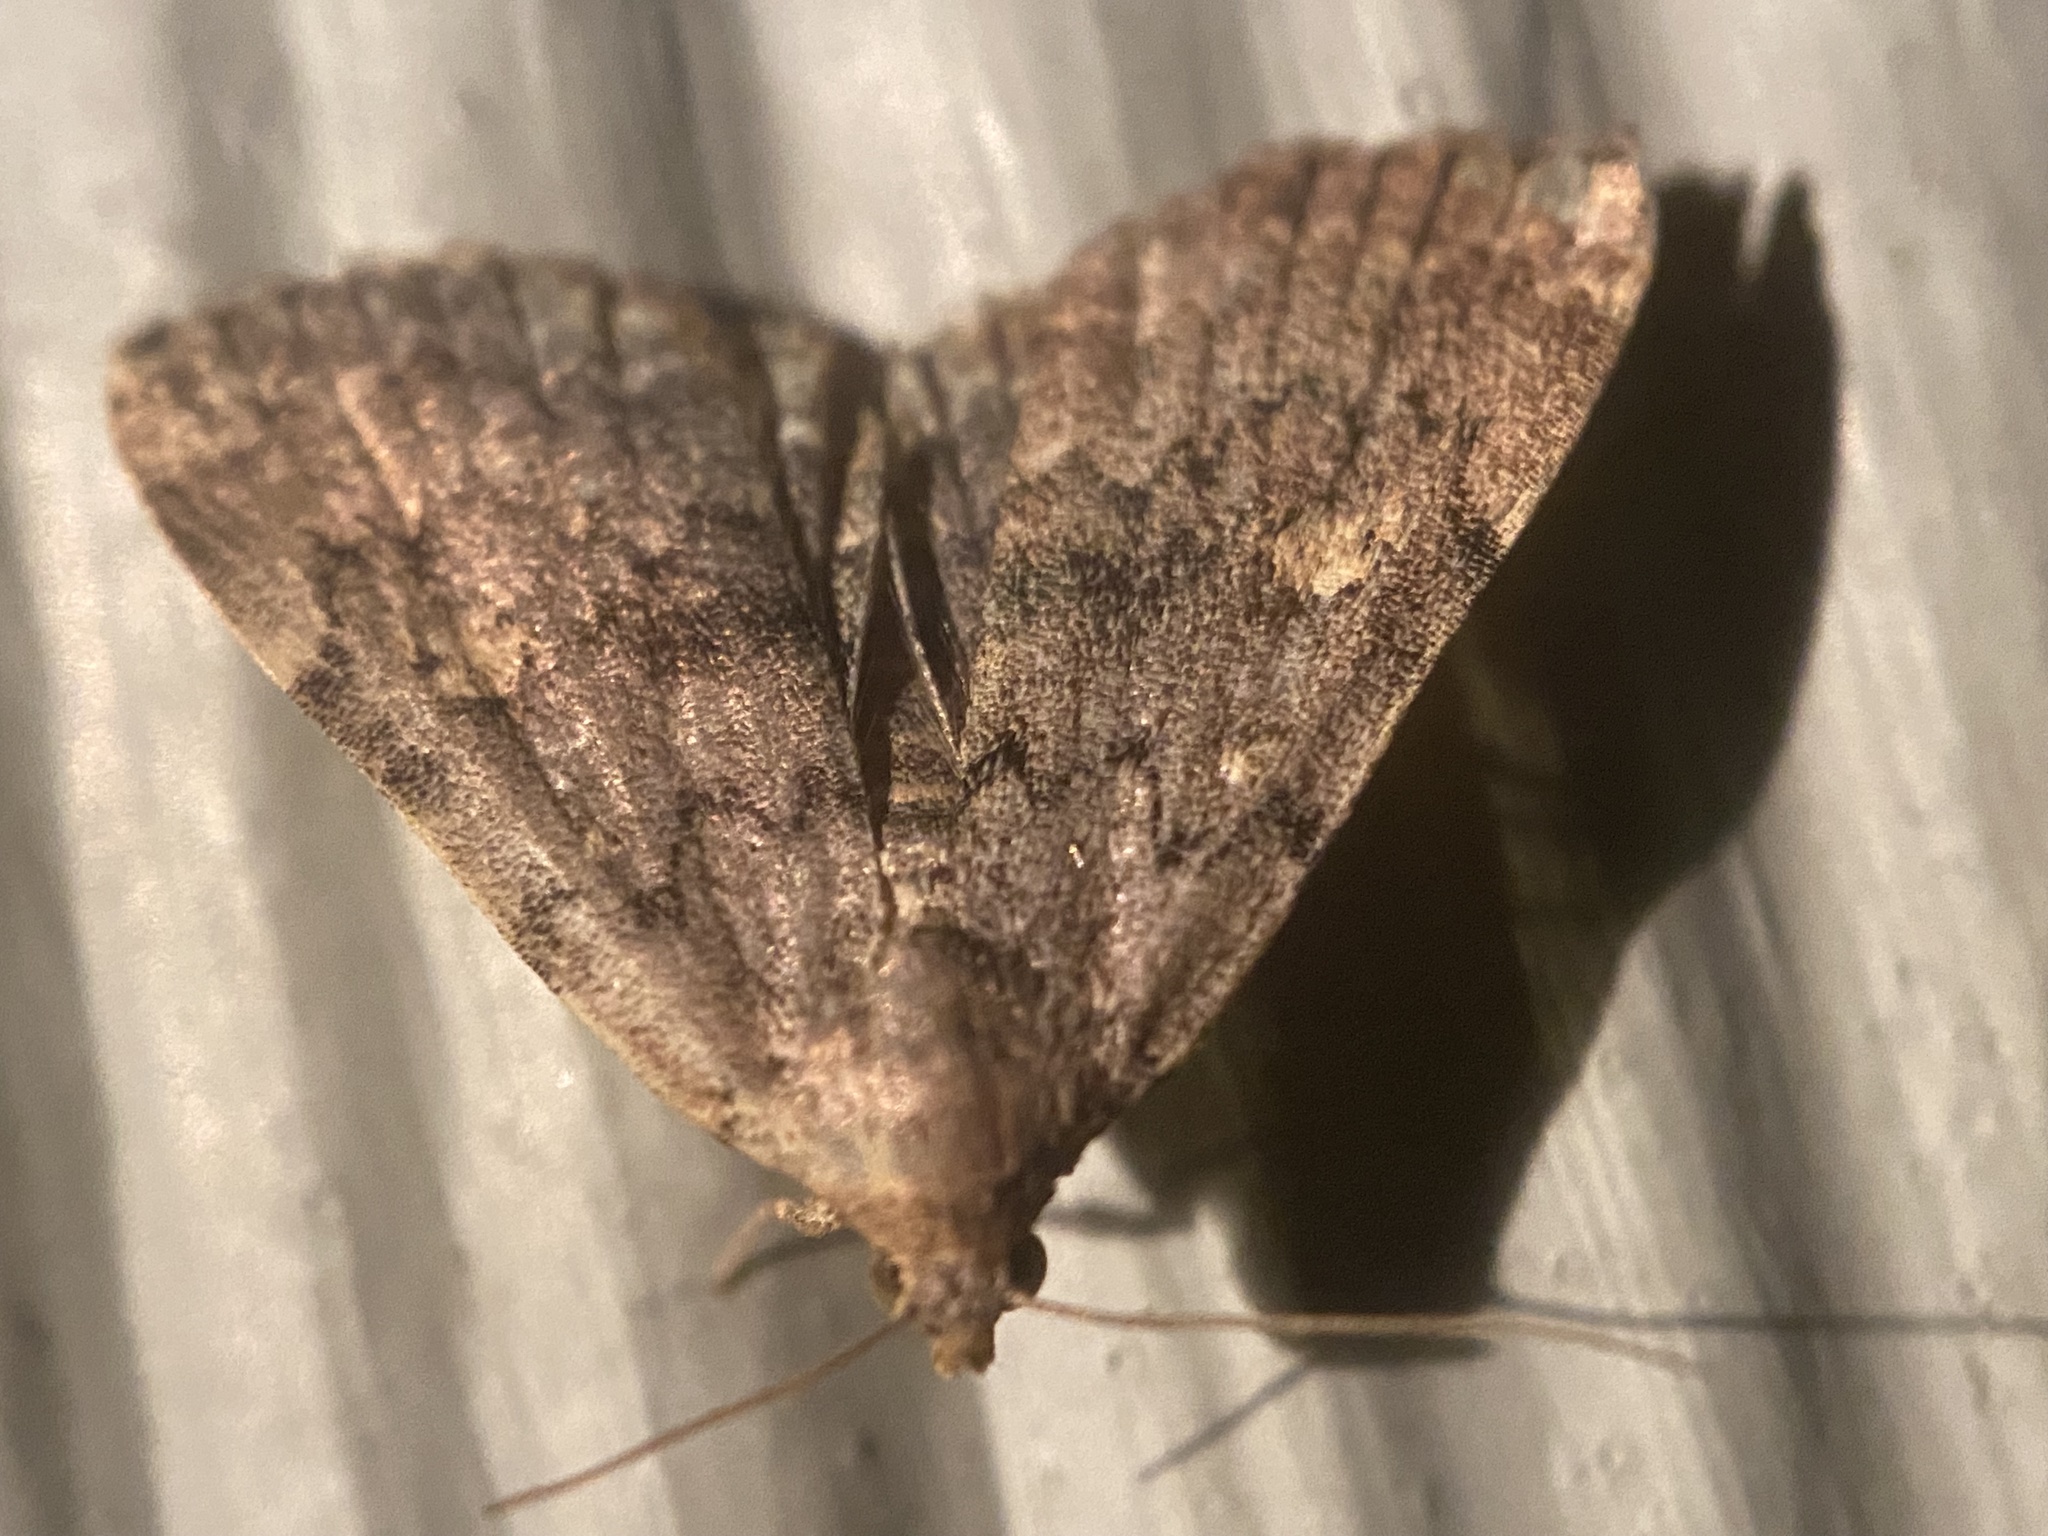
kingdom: Animalia
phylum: Arthropoda
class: Insecta
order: Lepidoptera
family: Erebidae
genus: Idia
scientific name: Idia aemula
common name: Common idia moth
